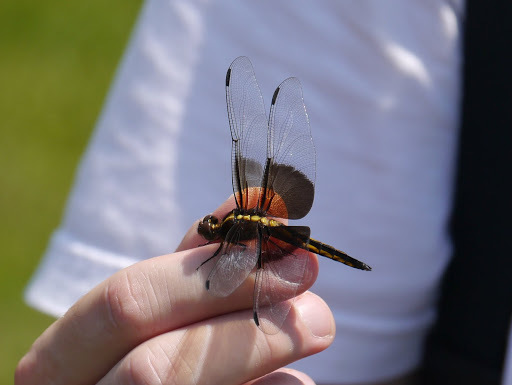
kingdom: Animalia
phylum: Arthropoda
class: Insecta
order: Odonata
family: Libellulidae
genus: Libellula
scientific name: Libellula luctuosa
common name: Widow skimmer
